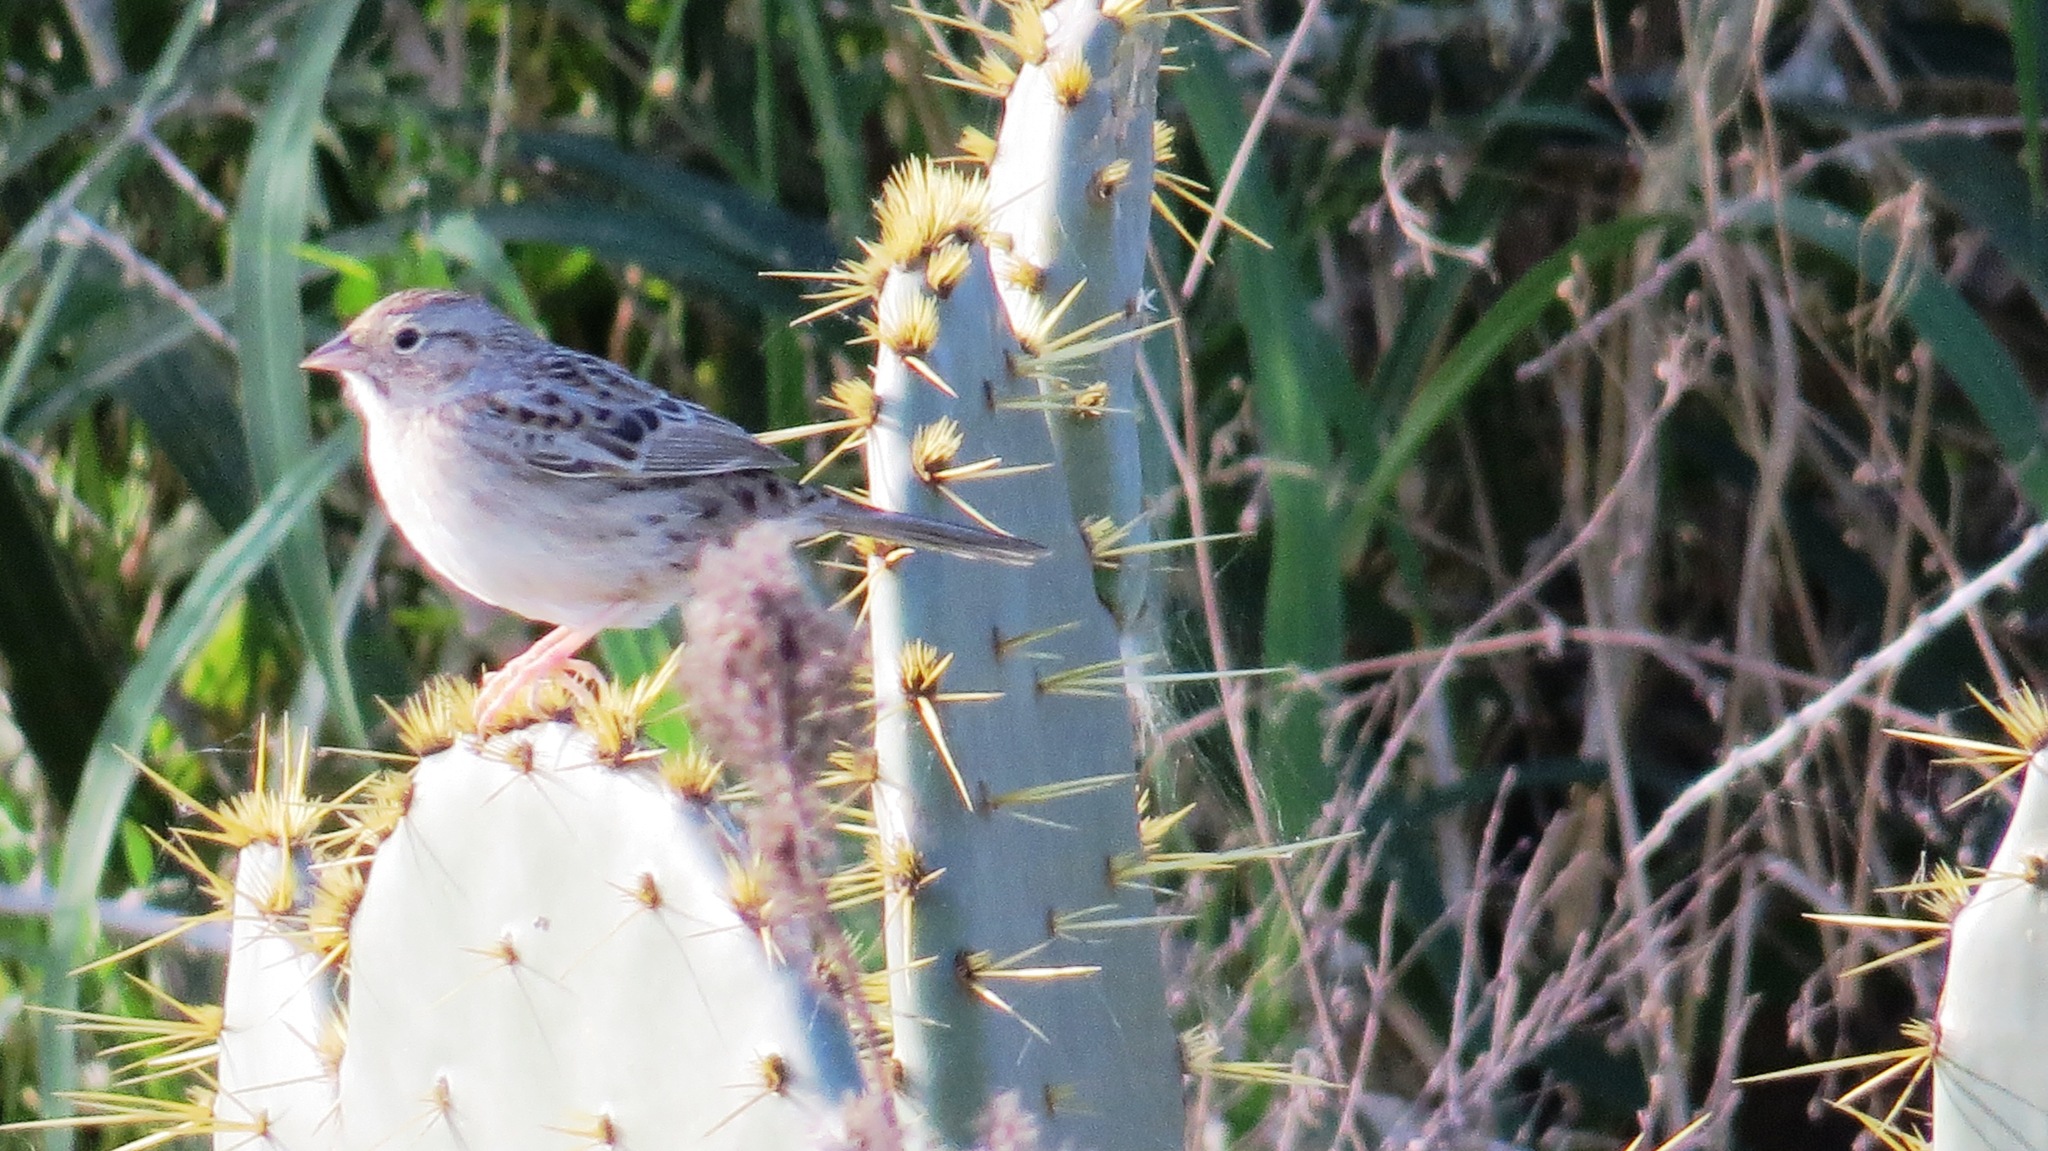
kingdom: Animalia
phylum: Chordata
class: Aves
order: Passeriformes
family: Passerellidae
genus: Peucaea
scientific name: Peucaea cassinii
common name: Cassin's sparrow
